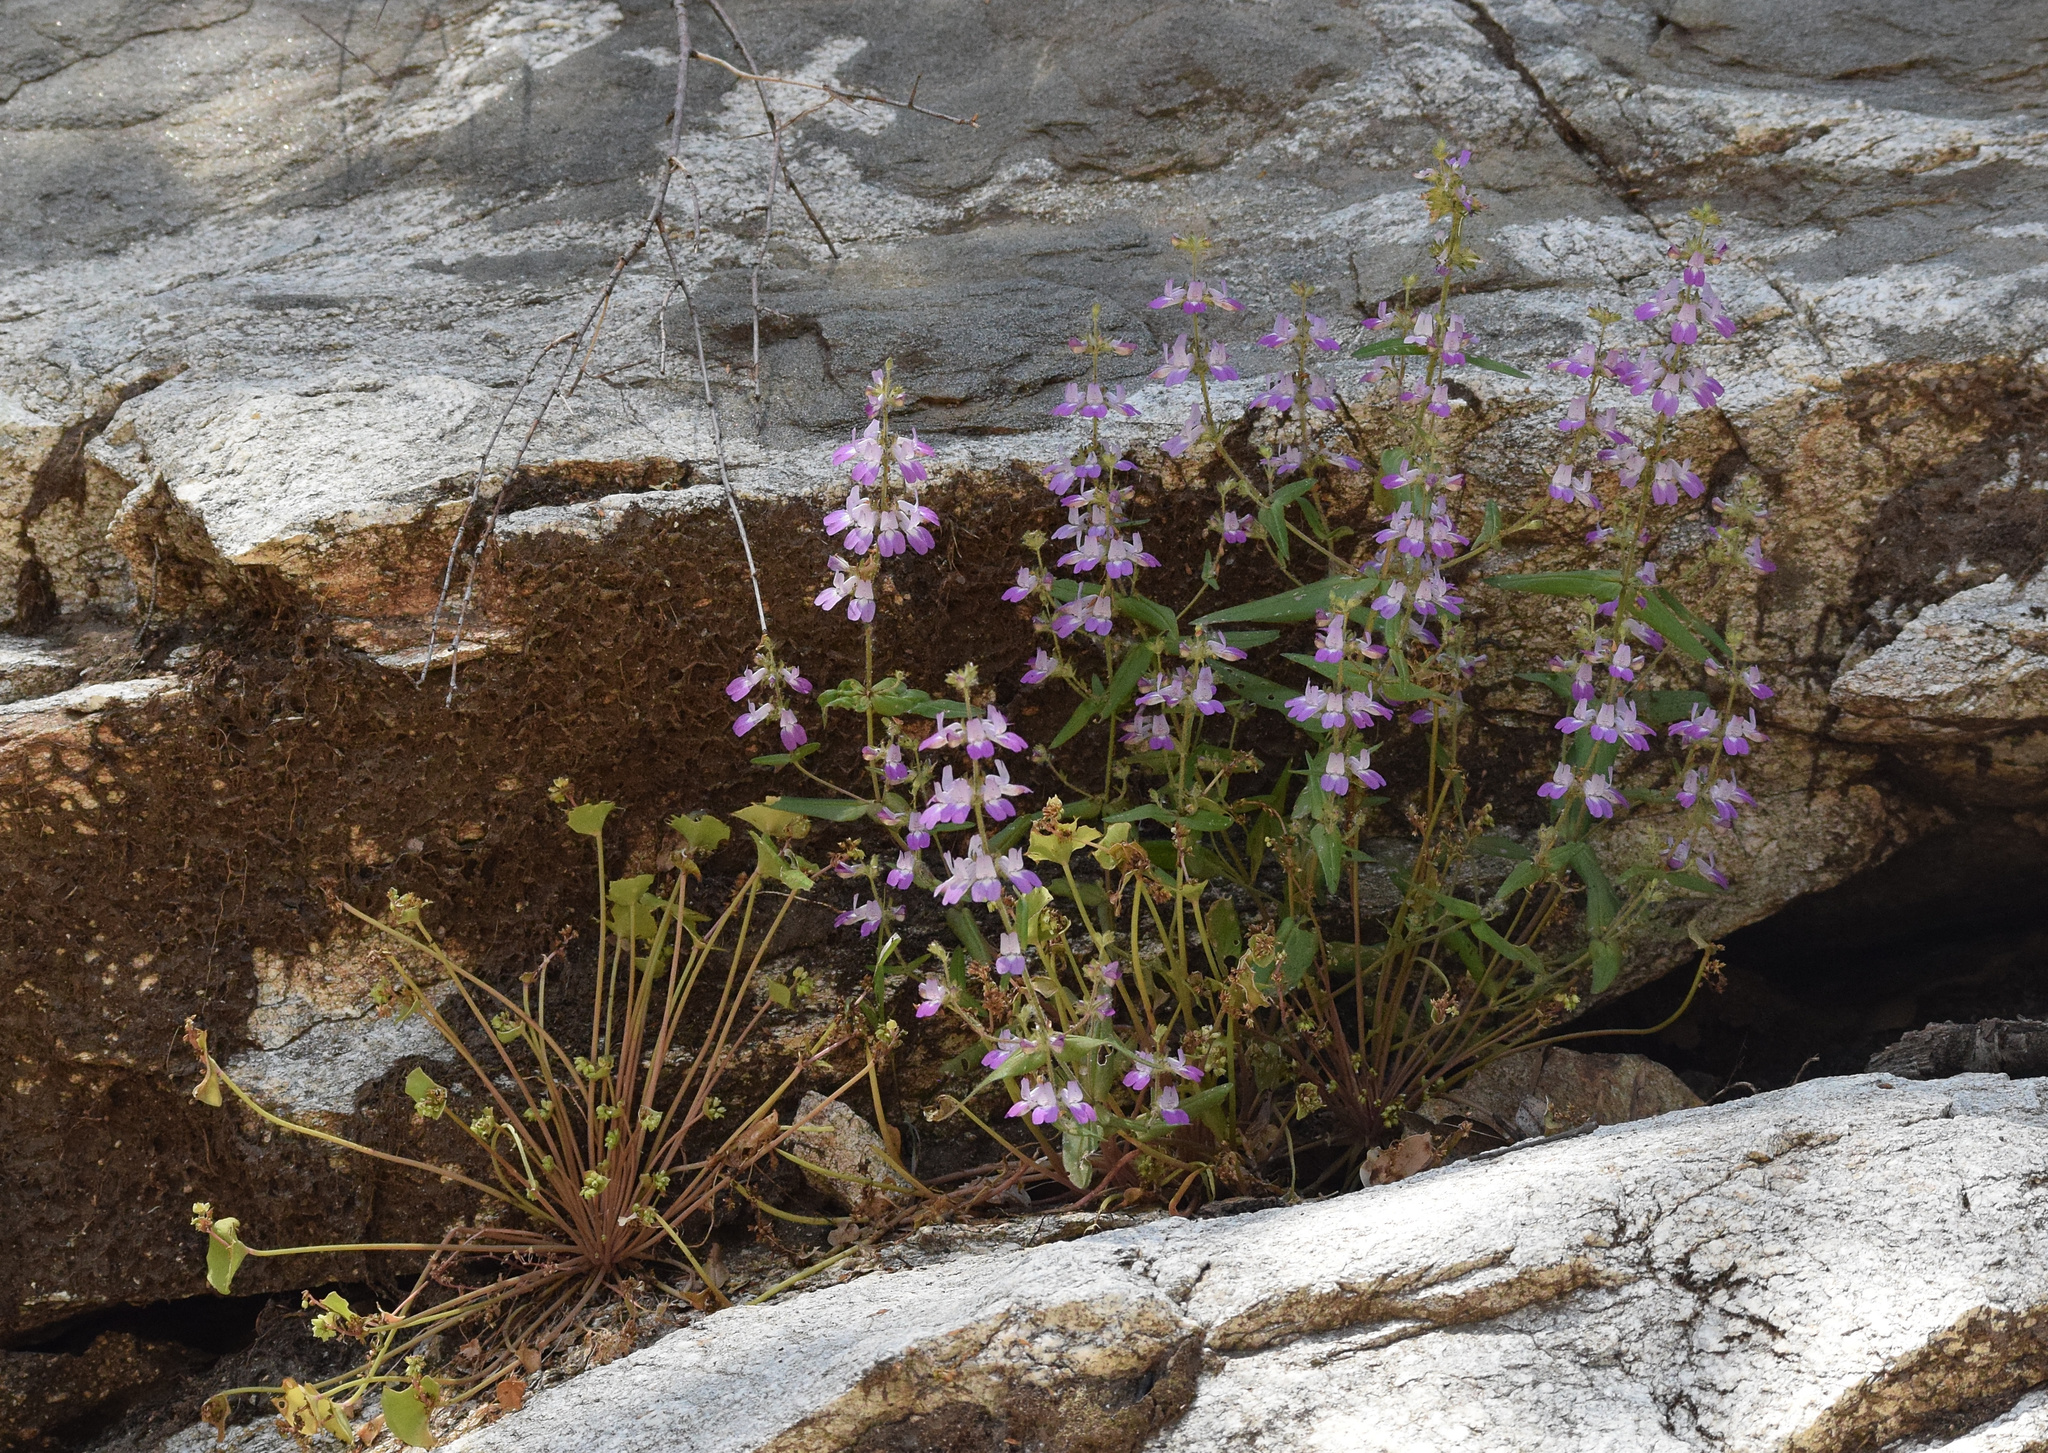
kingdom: Plantae
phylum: Tracheophyta
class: Magnoliopsida
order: Lamiales
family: Plantaginaceae
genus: Collinsia
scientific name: Collinsia heterophylla
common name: Chinese-houses
